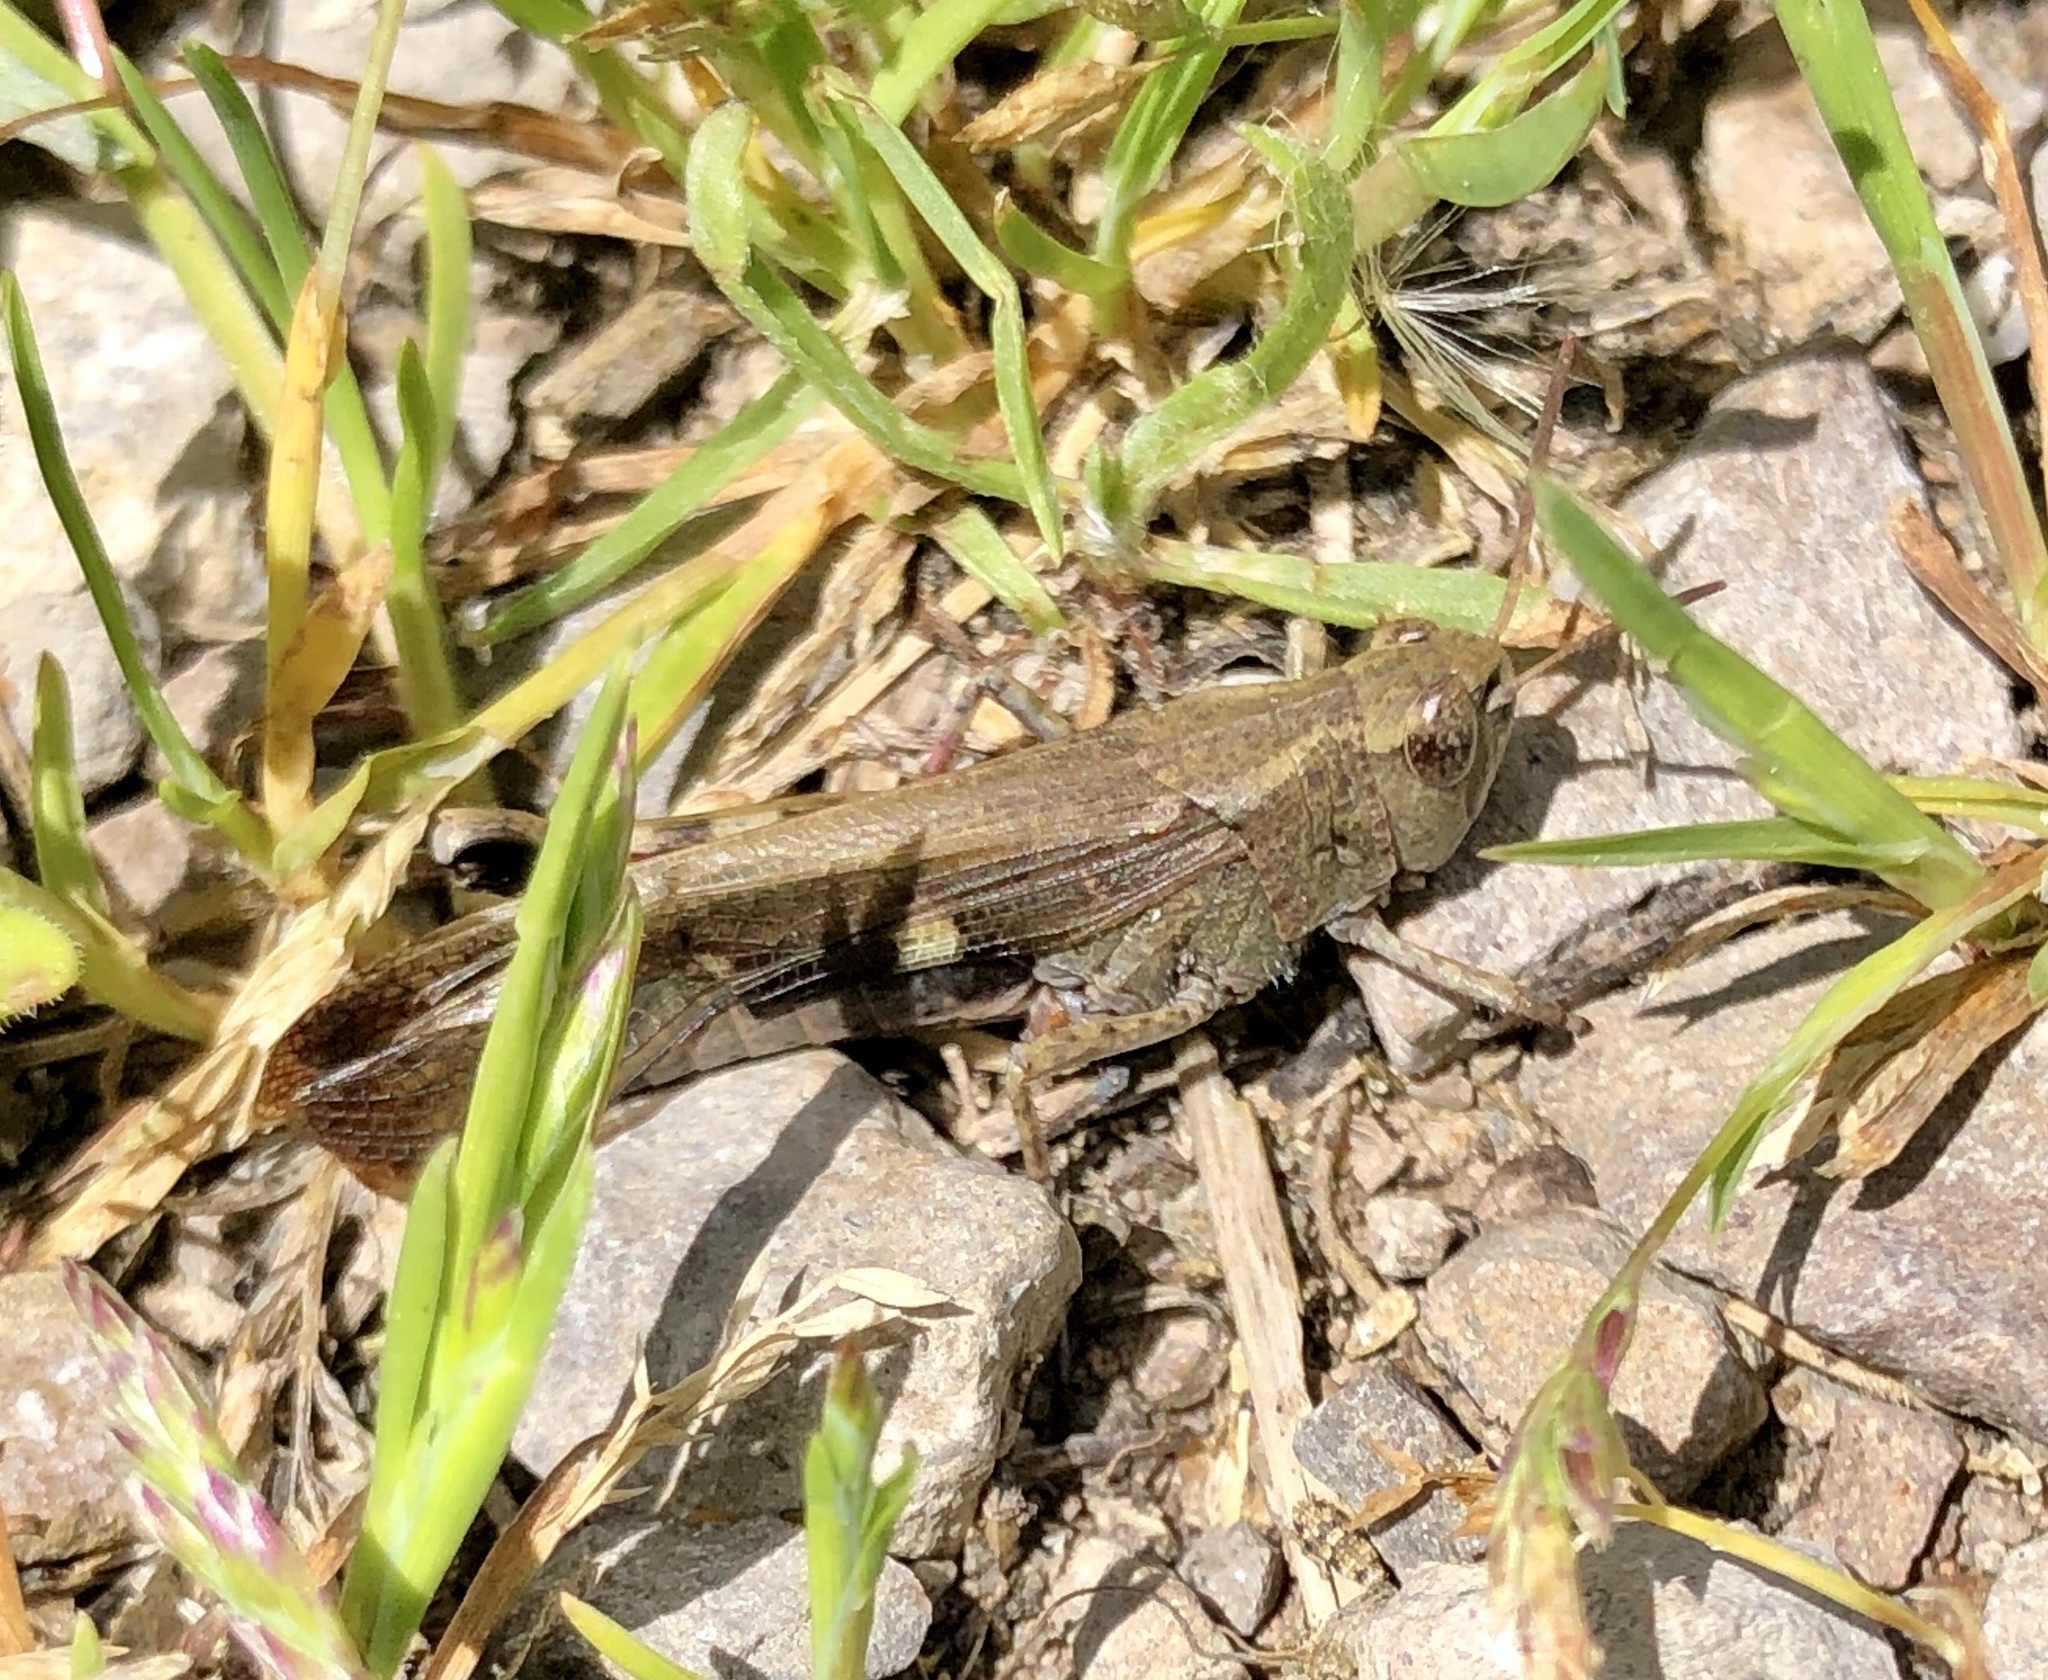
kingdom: Animalia
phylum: Arthropoda
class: Insecta
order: Orthoptera
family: Acrididae
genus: Aiolopus
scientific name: Aiolopus strepens
